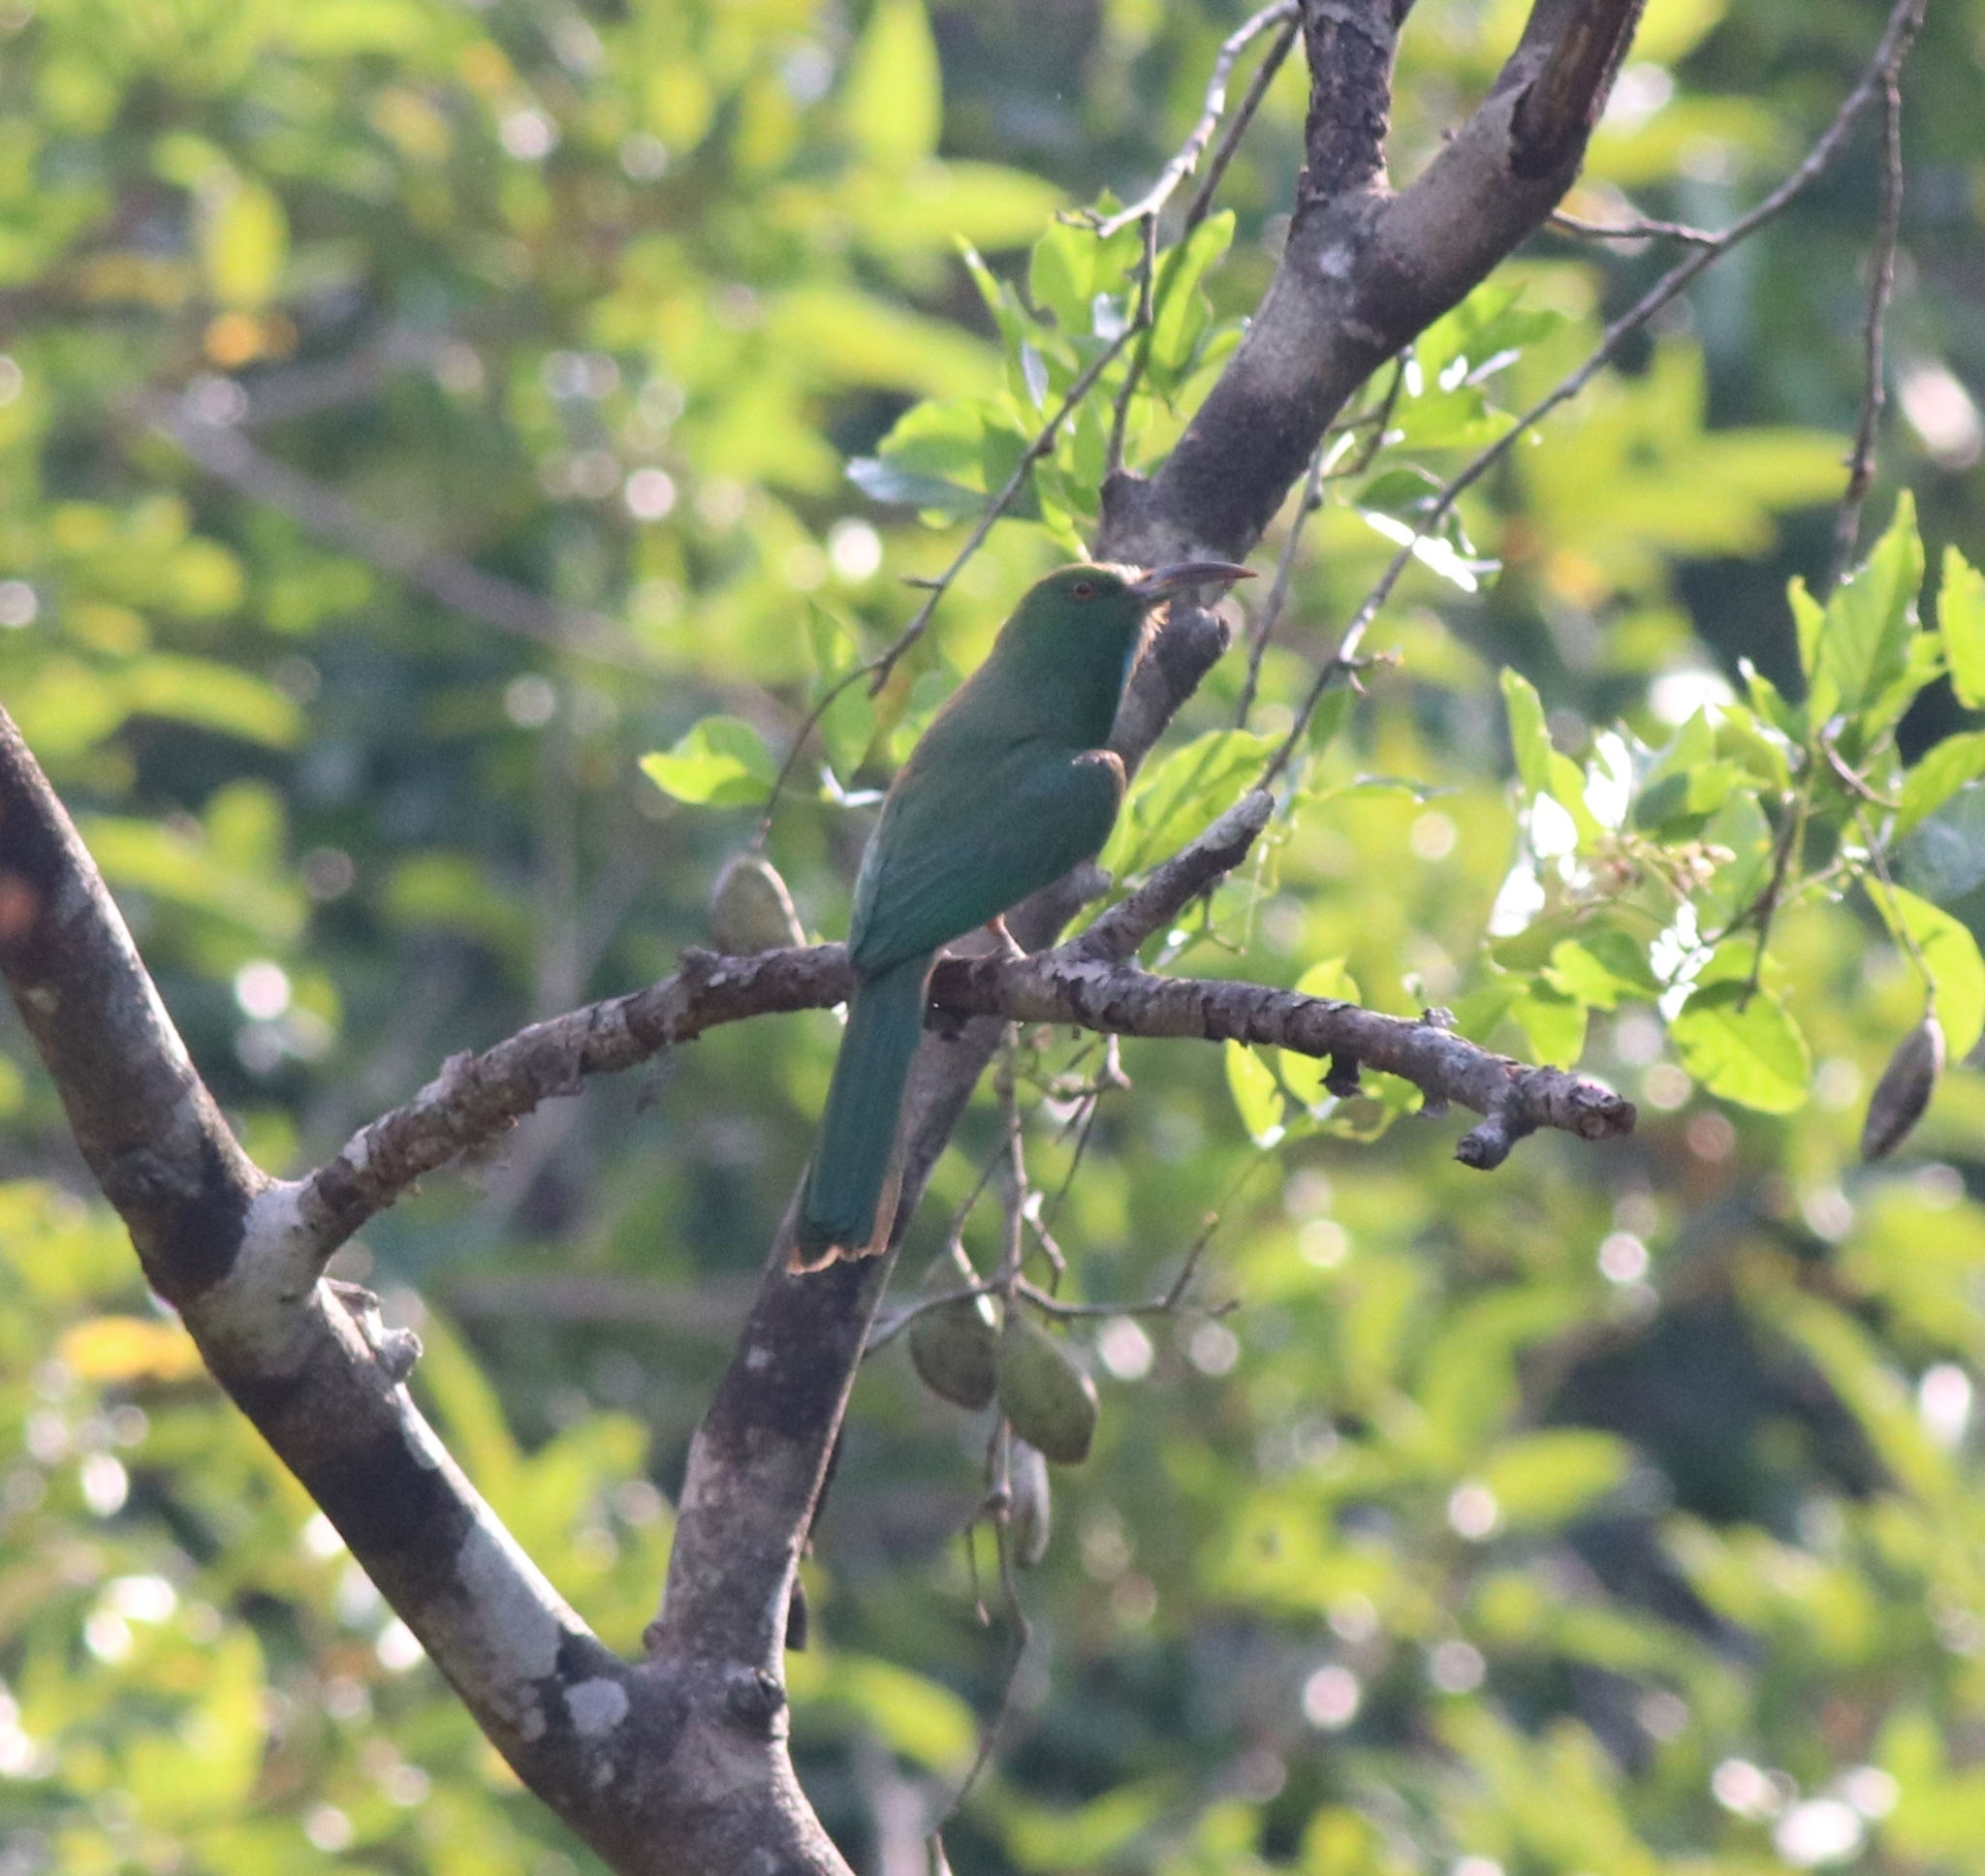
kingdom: Animalia
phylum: Chordata
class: Aves
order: Coraciiformes
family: Meropidae
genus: Nyctyornis
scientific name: Nyctyornis athertoni
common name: Blue-bearded bee-eater
